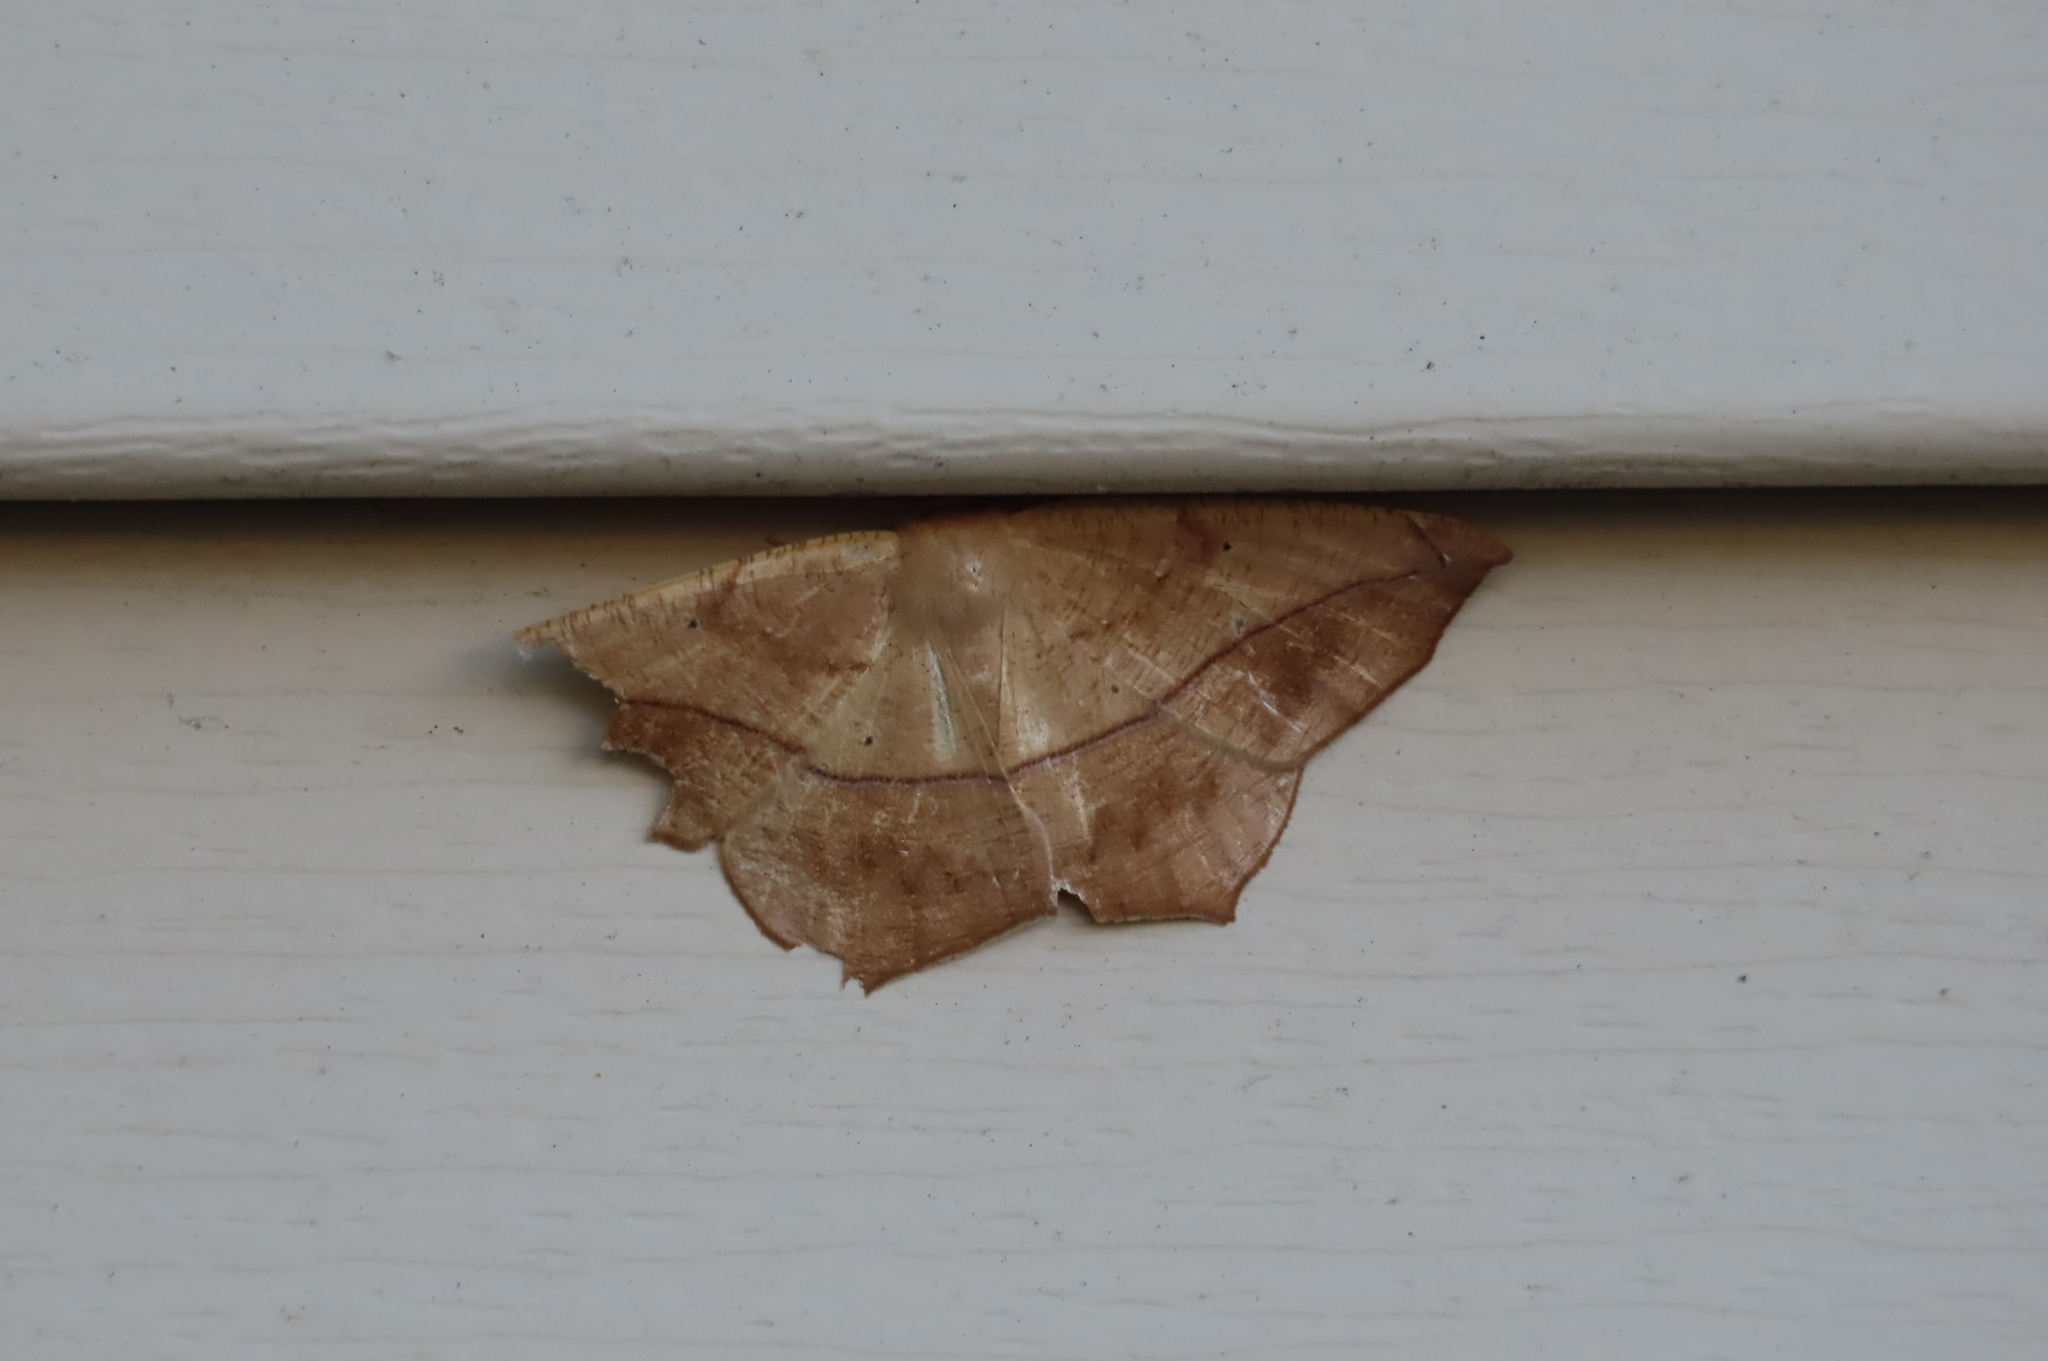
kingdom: Animalia
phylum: Arthropoda
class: Insecta
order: Lepidoptera
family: Geometridae
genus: Prochoerodes
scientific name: Prochoerodes lineola
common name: Large maple spanworm
